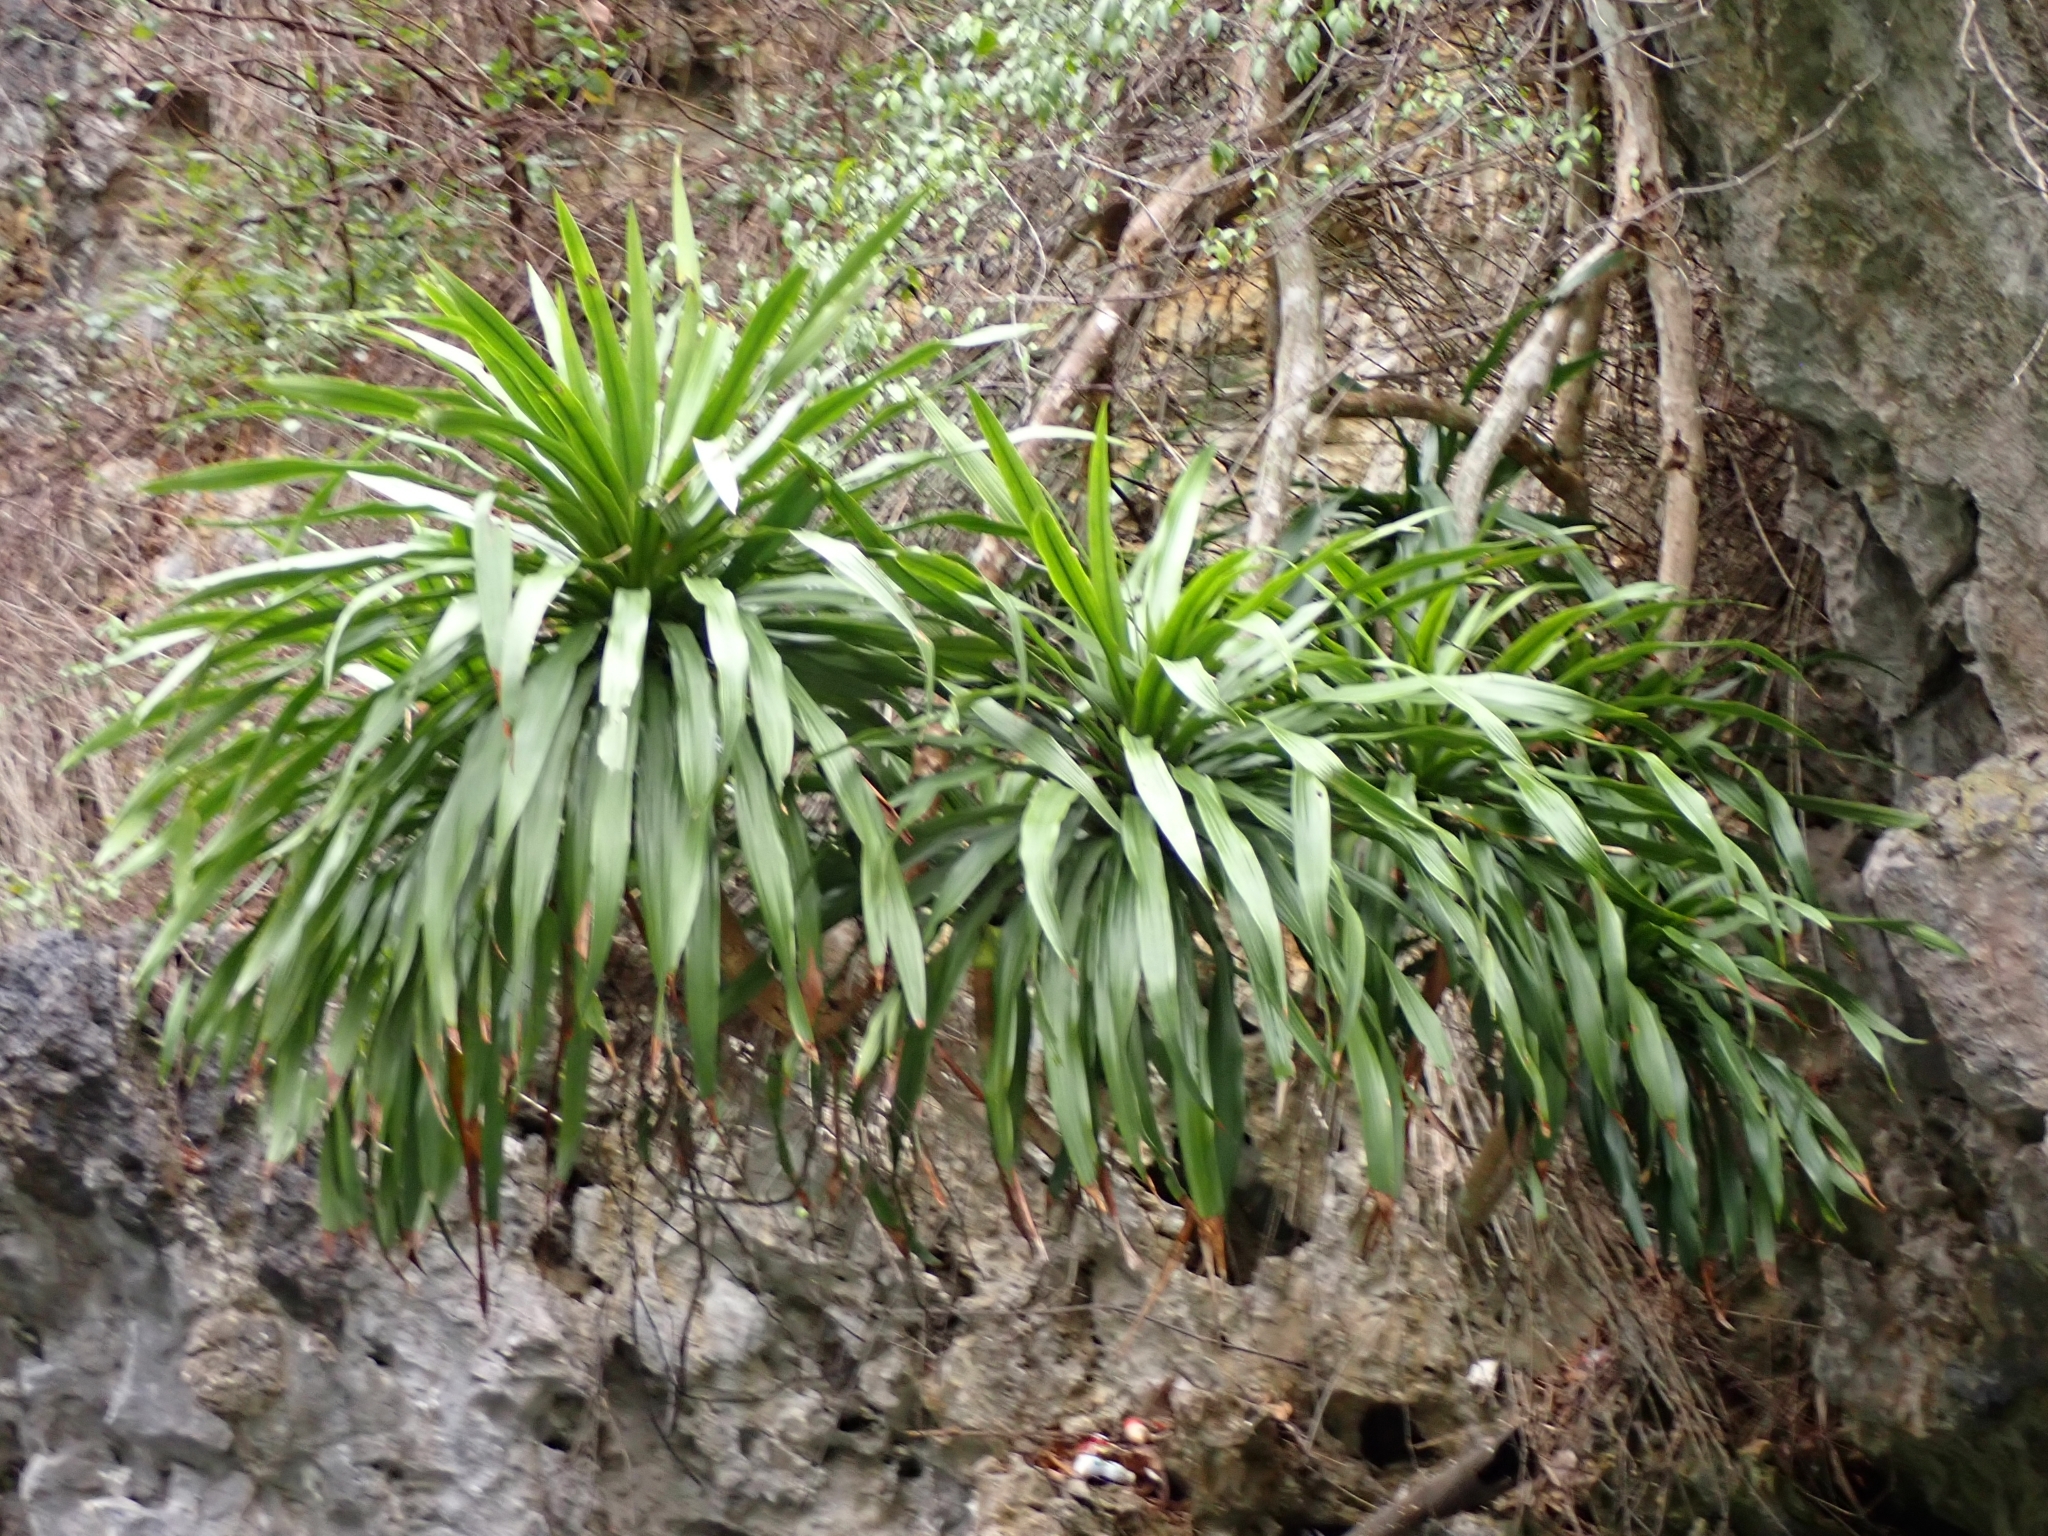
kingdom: Plantae
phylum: Tracheophyta
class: Liliopsida
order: Asparagales
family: Asparagaceae
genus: Dracaena
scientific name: Dracaena cochinchinensis
